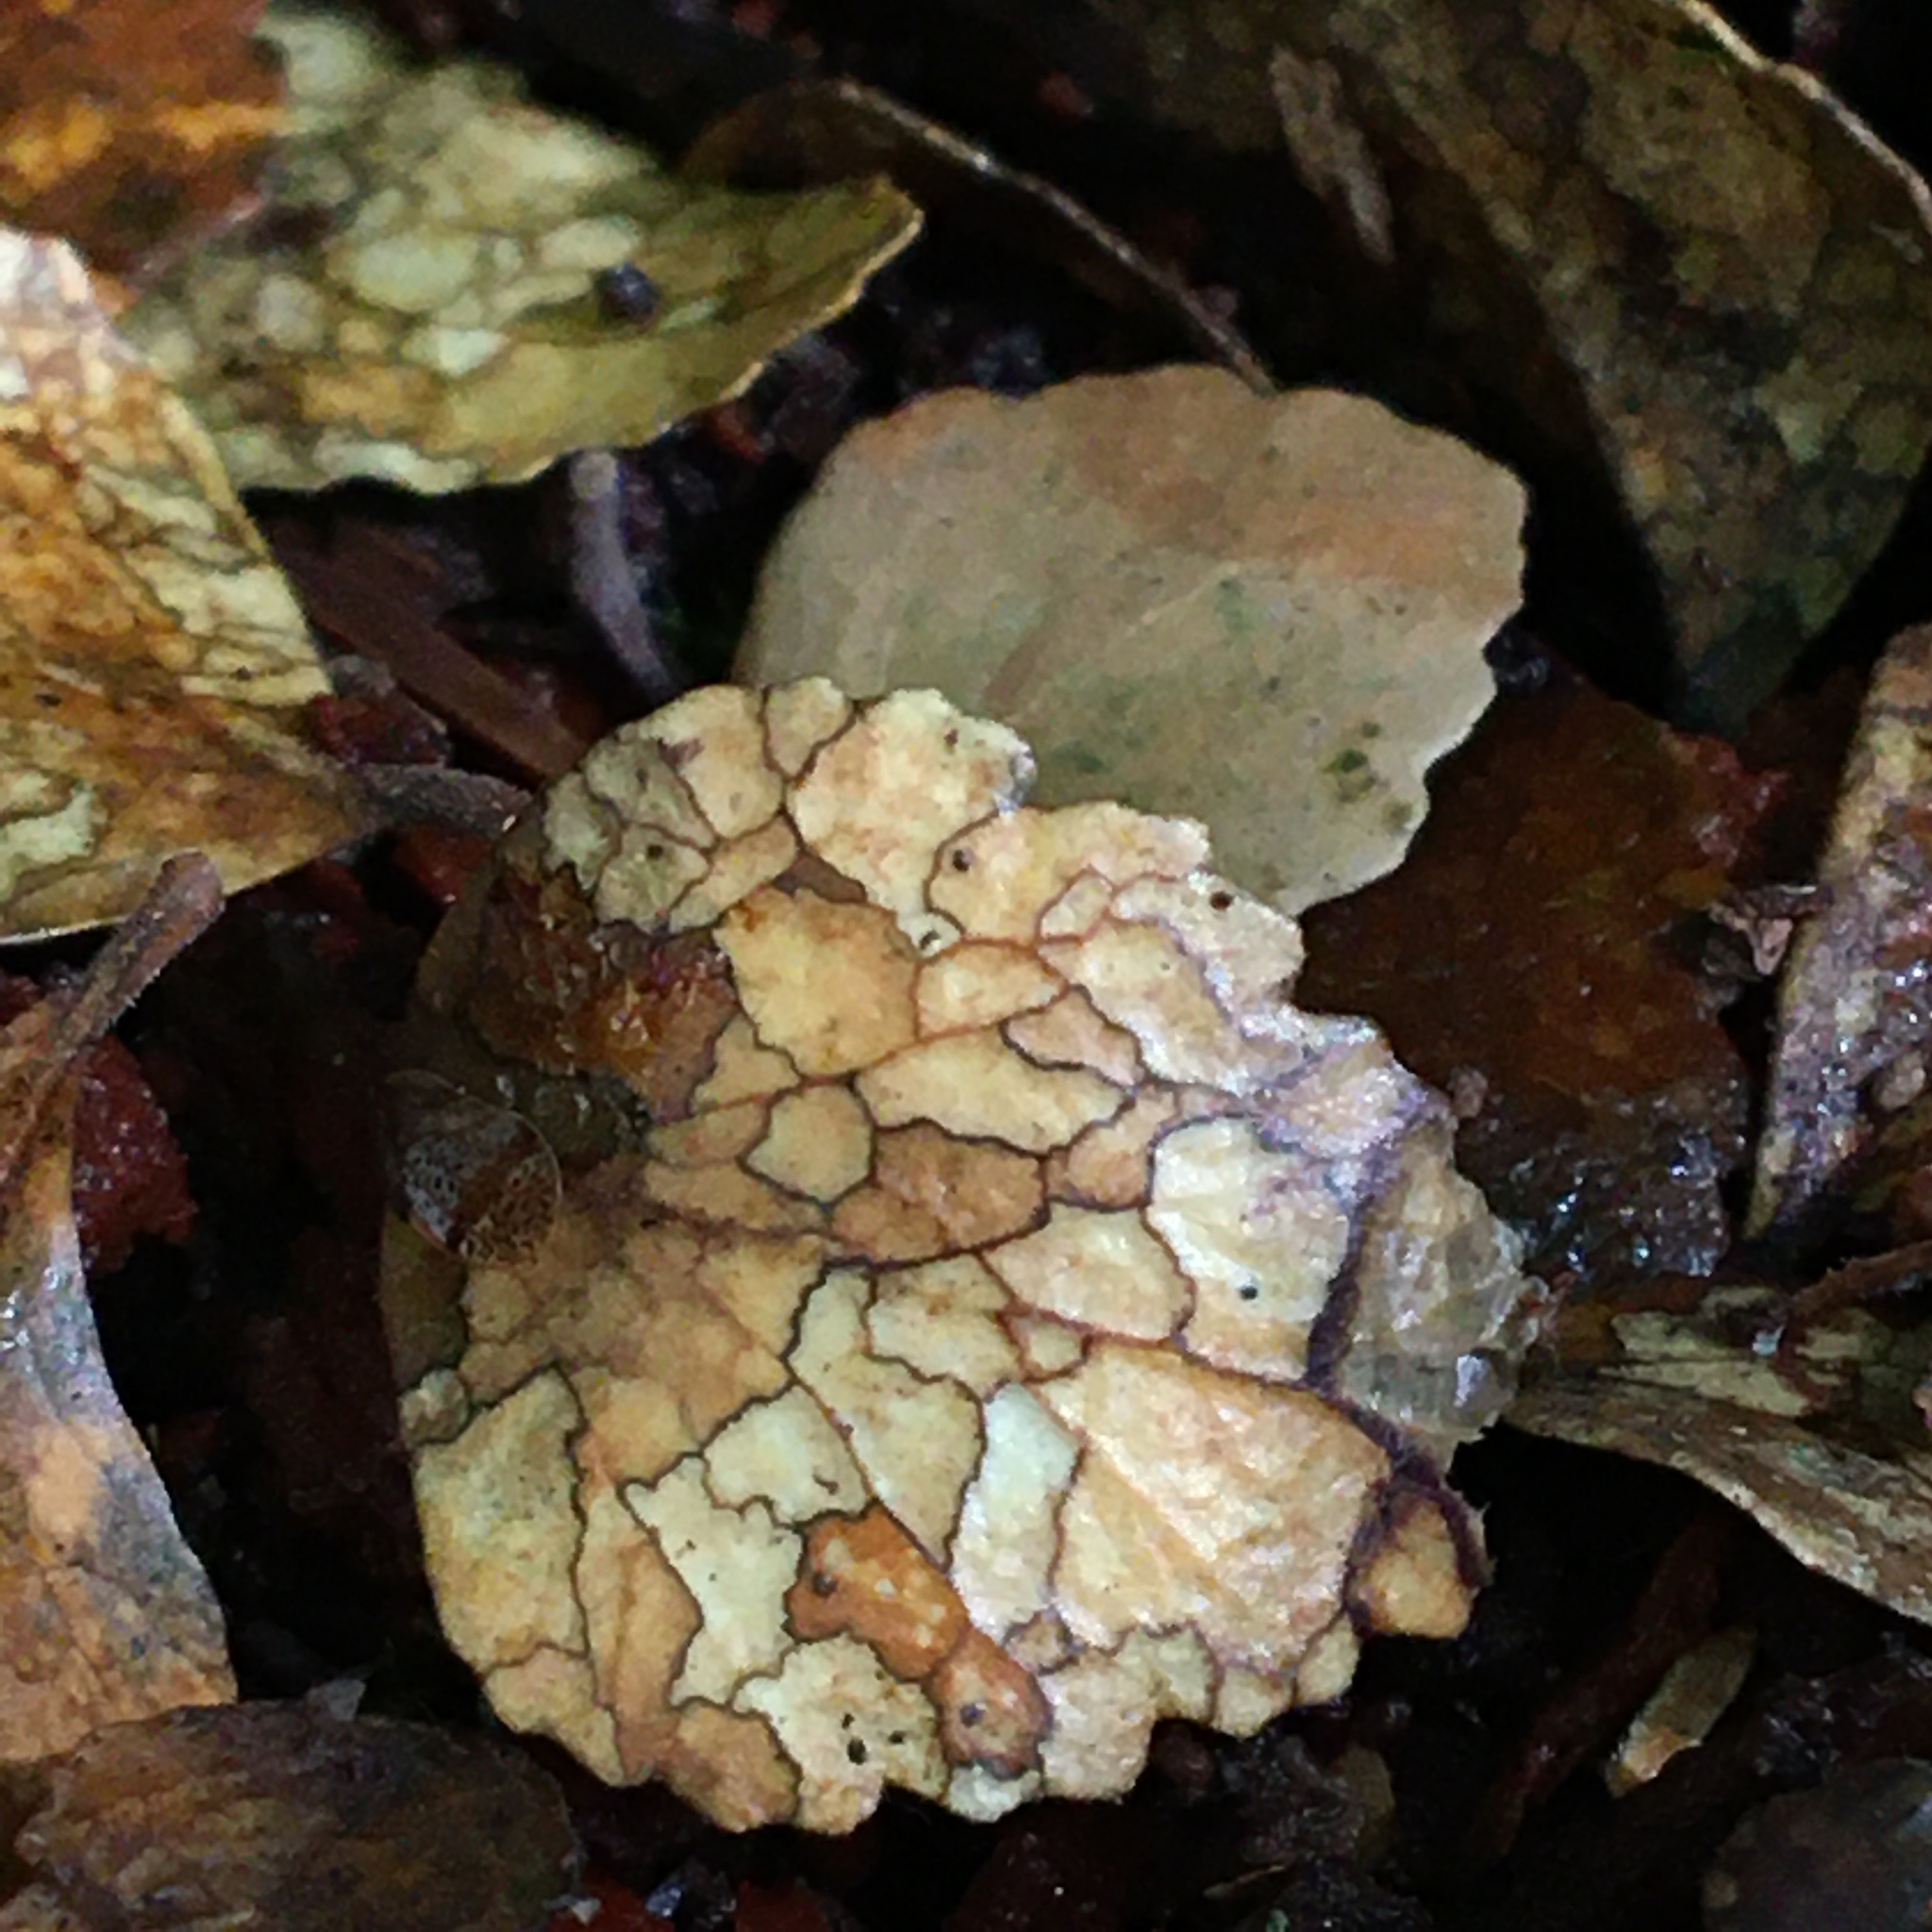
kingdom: Fungi
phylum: Ascomycota
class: Leotiomycetes
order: Helotiales
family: Rutstroemiaceae
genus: Lanzia
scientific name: Lanzia berggrenii
